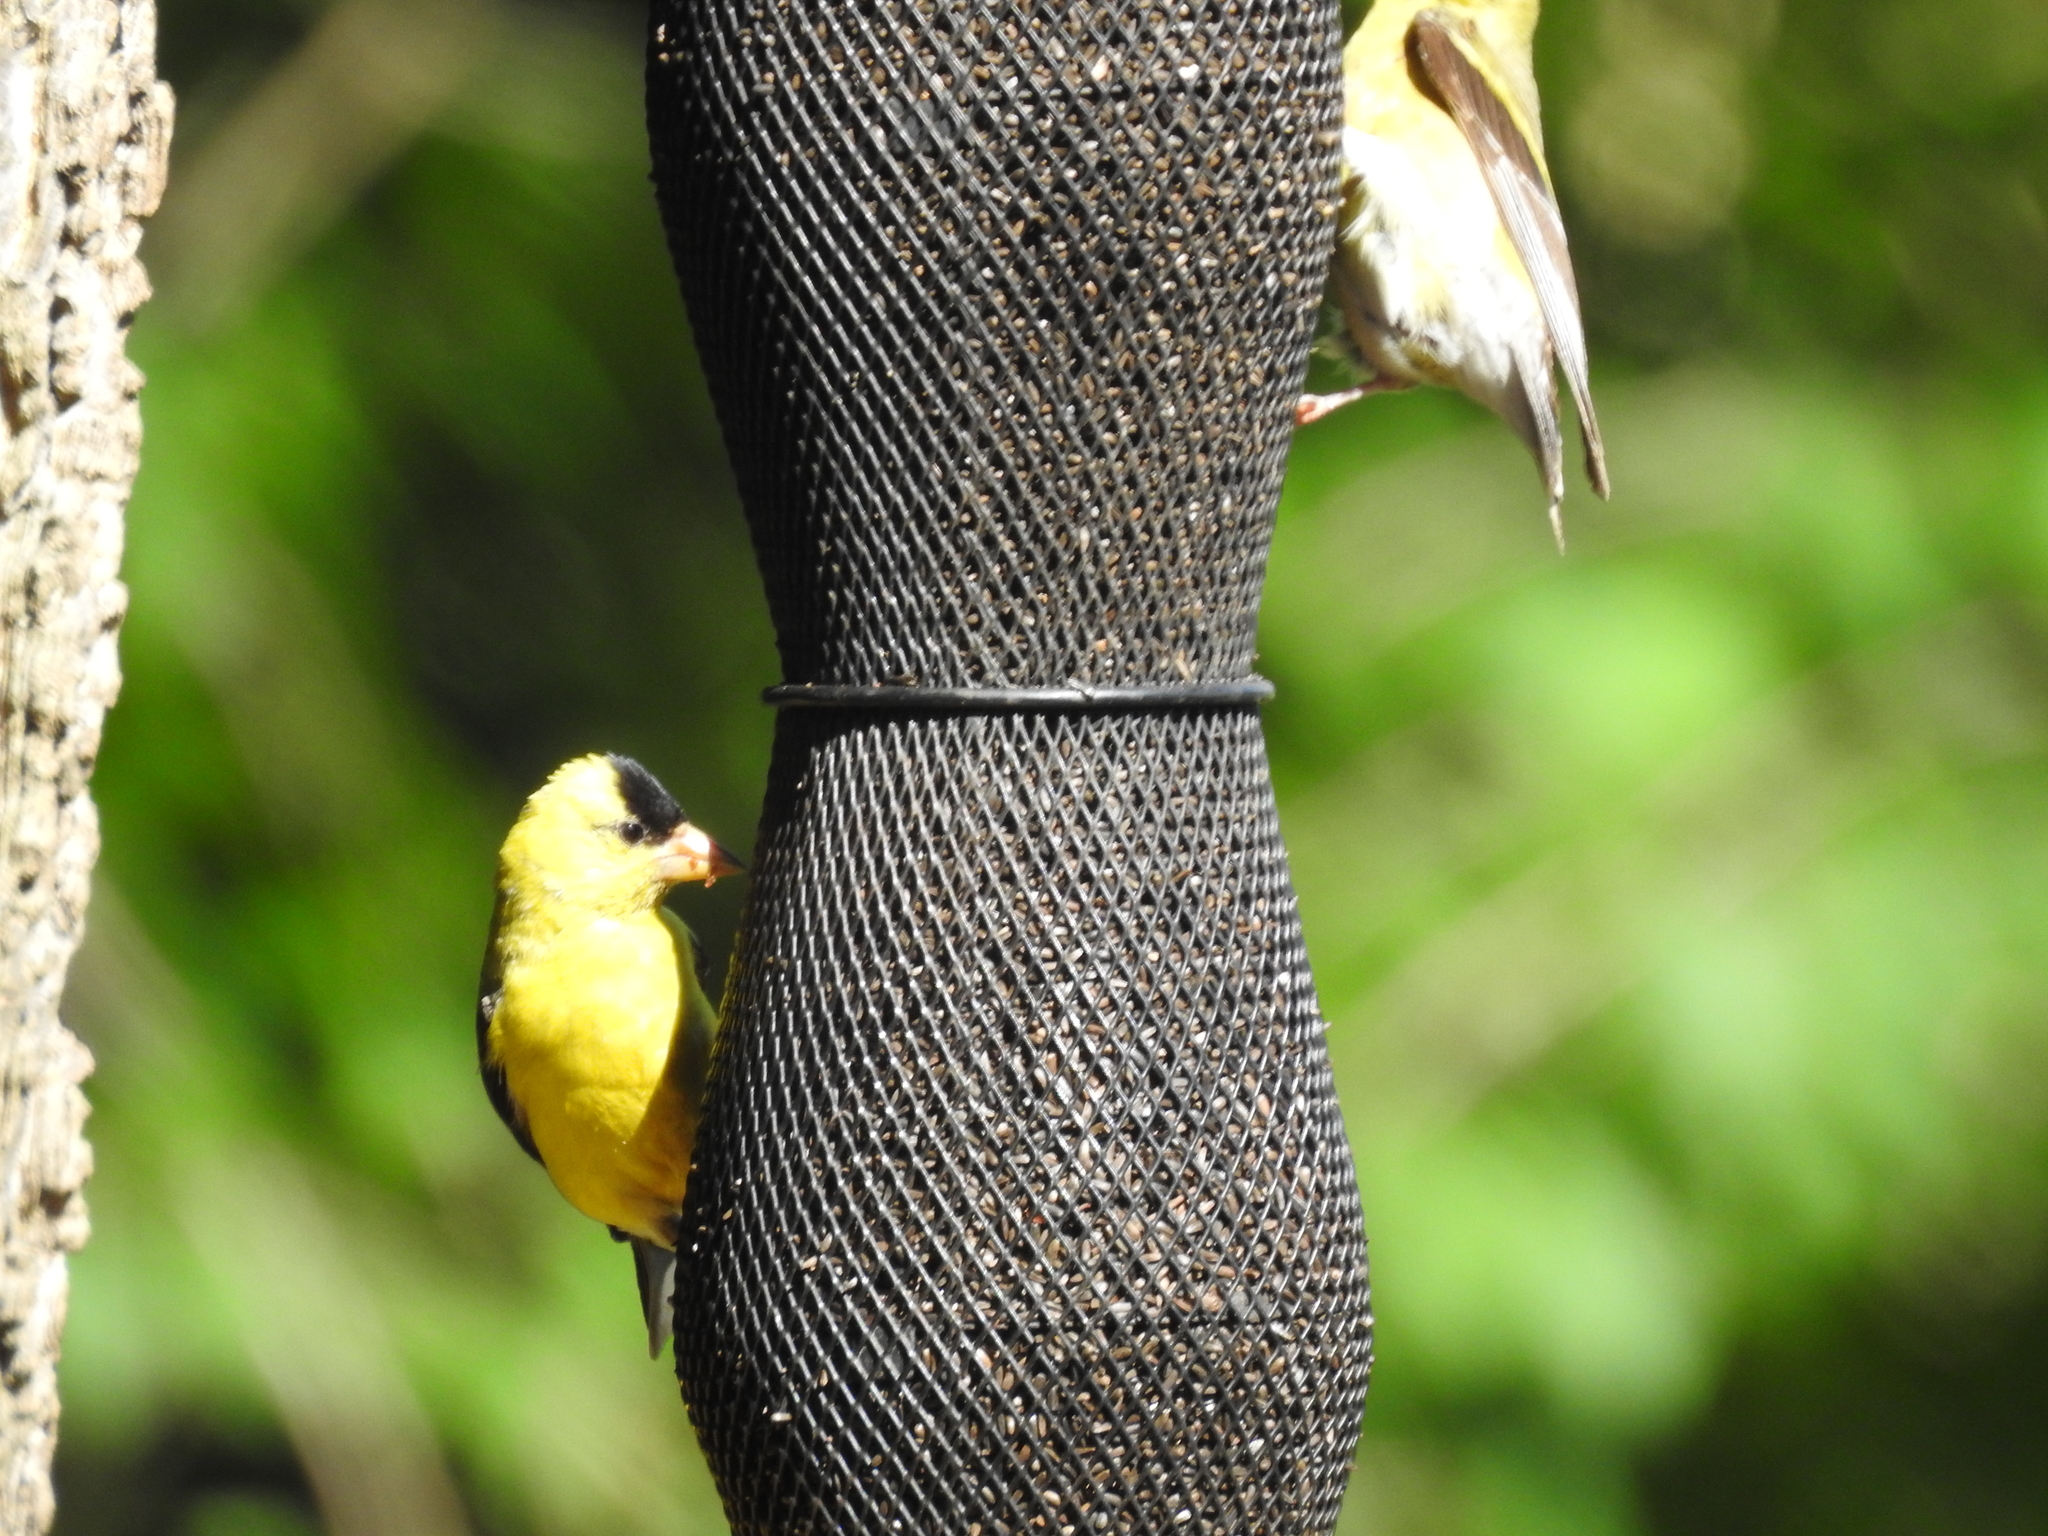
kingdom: Animalia
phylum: Chordata
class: Aves
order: Passeriformes
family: Fringillidae
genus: Spinus
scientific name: Spinus tristis
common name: American goldfinch
